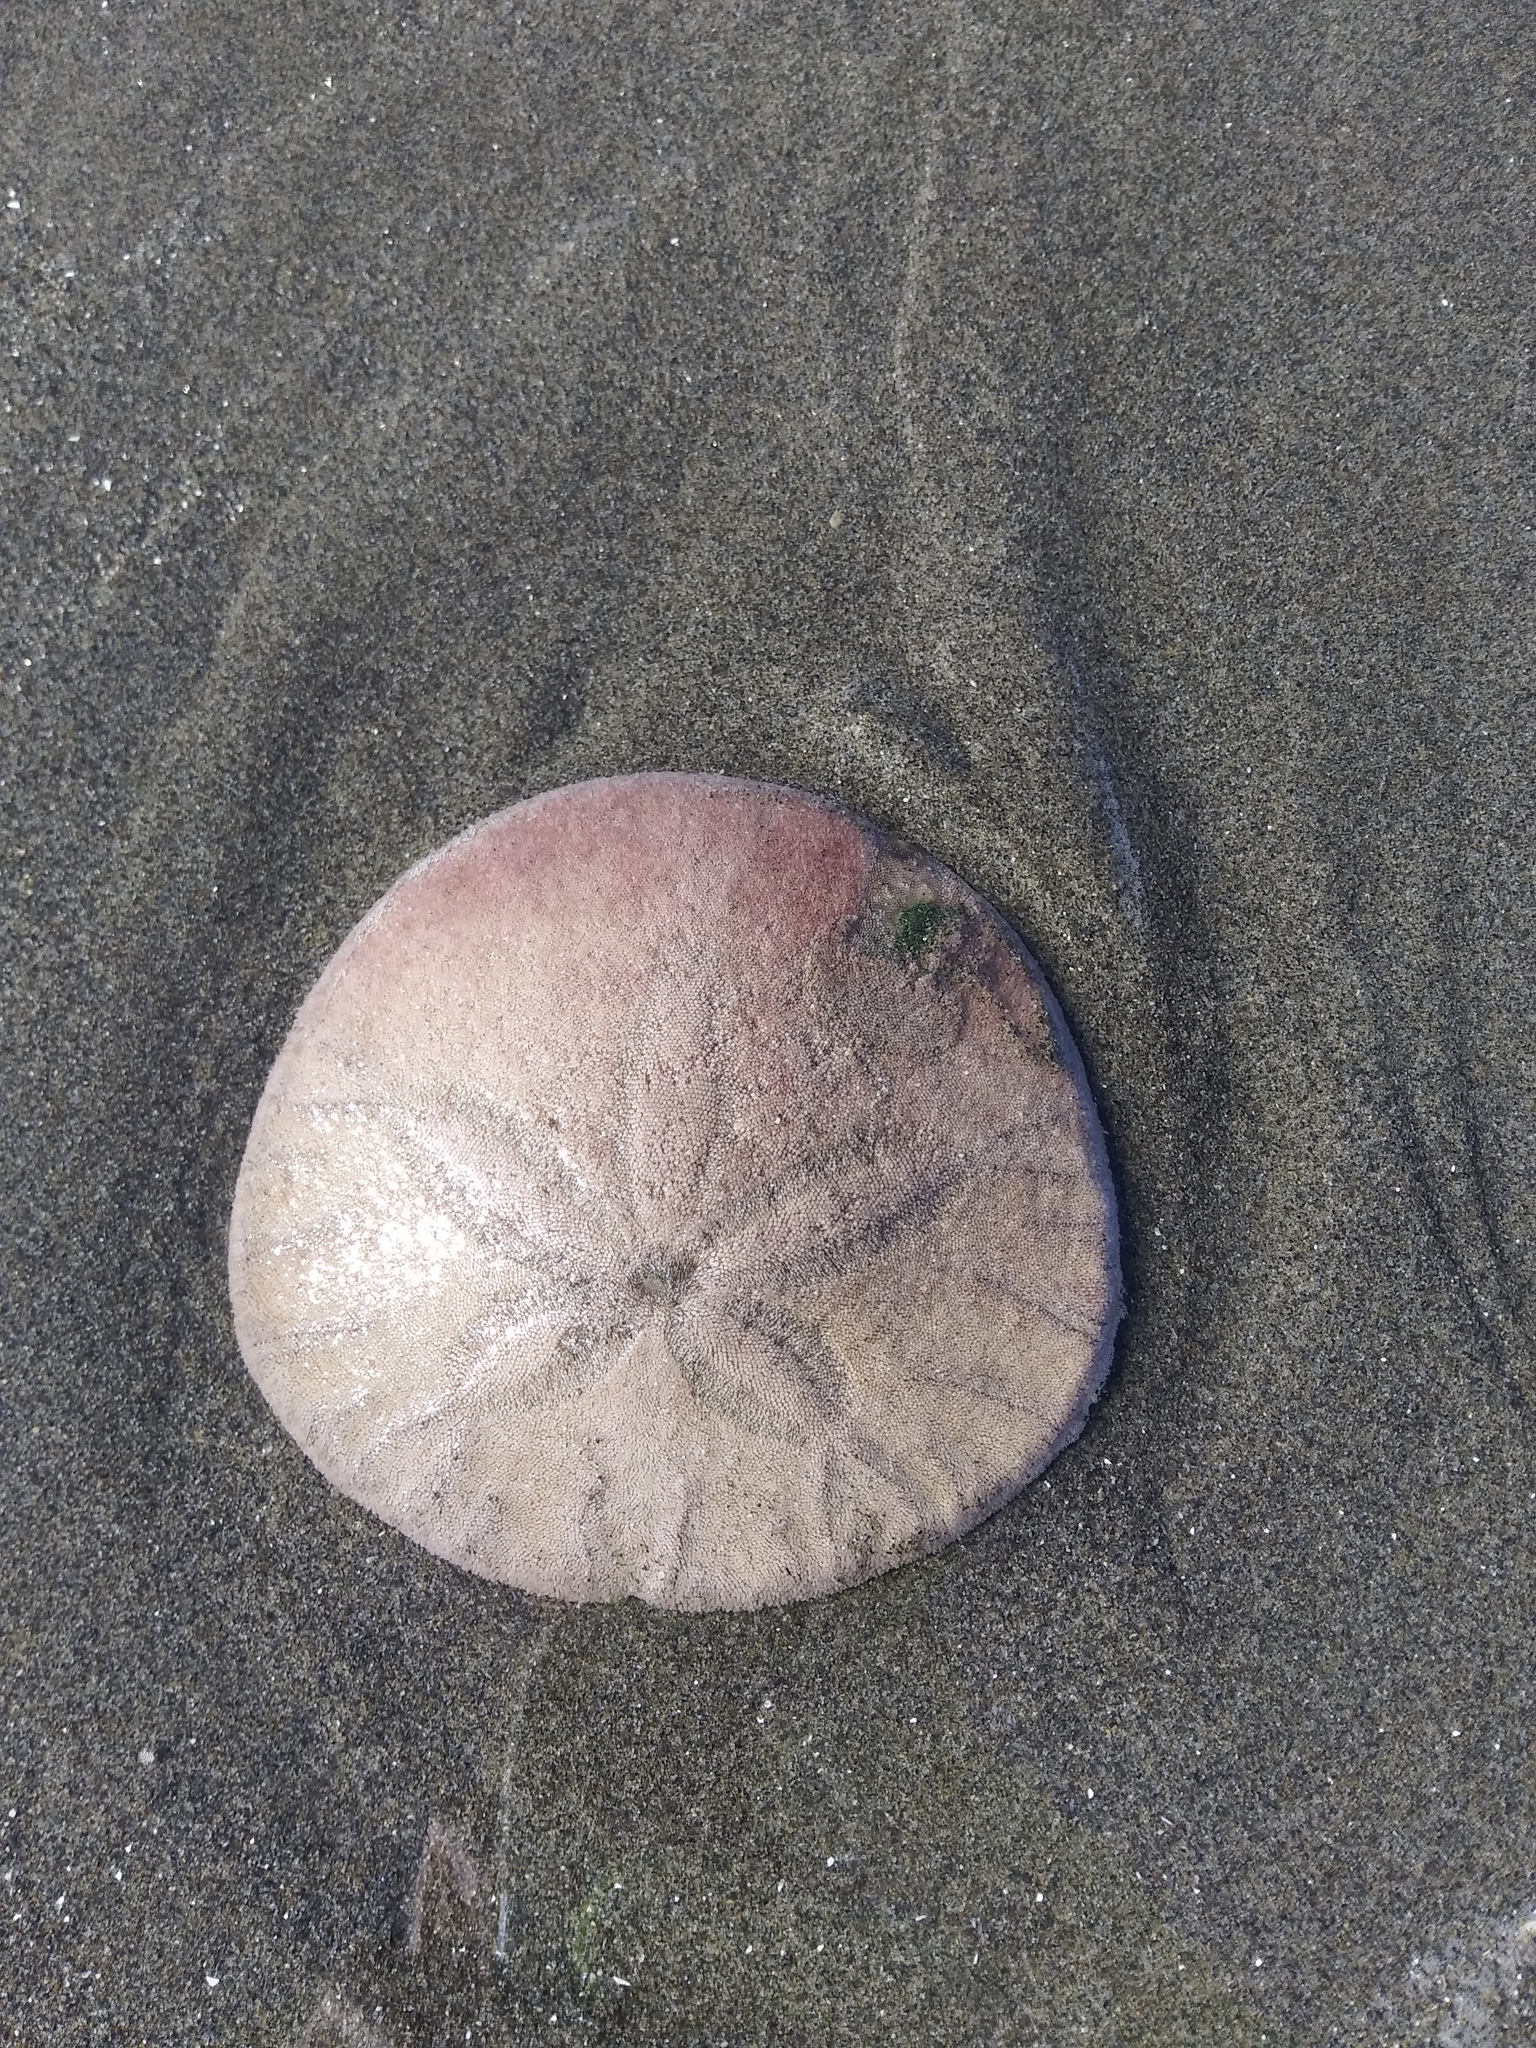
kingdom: Animalia
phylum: Echinodermata
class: Echinoidea
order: Echinolampadacea
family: Dendrasteridae
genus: Dendraster
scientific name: Dendraster excentricus
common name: Eccentric sand dollar sea urchin
